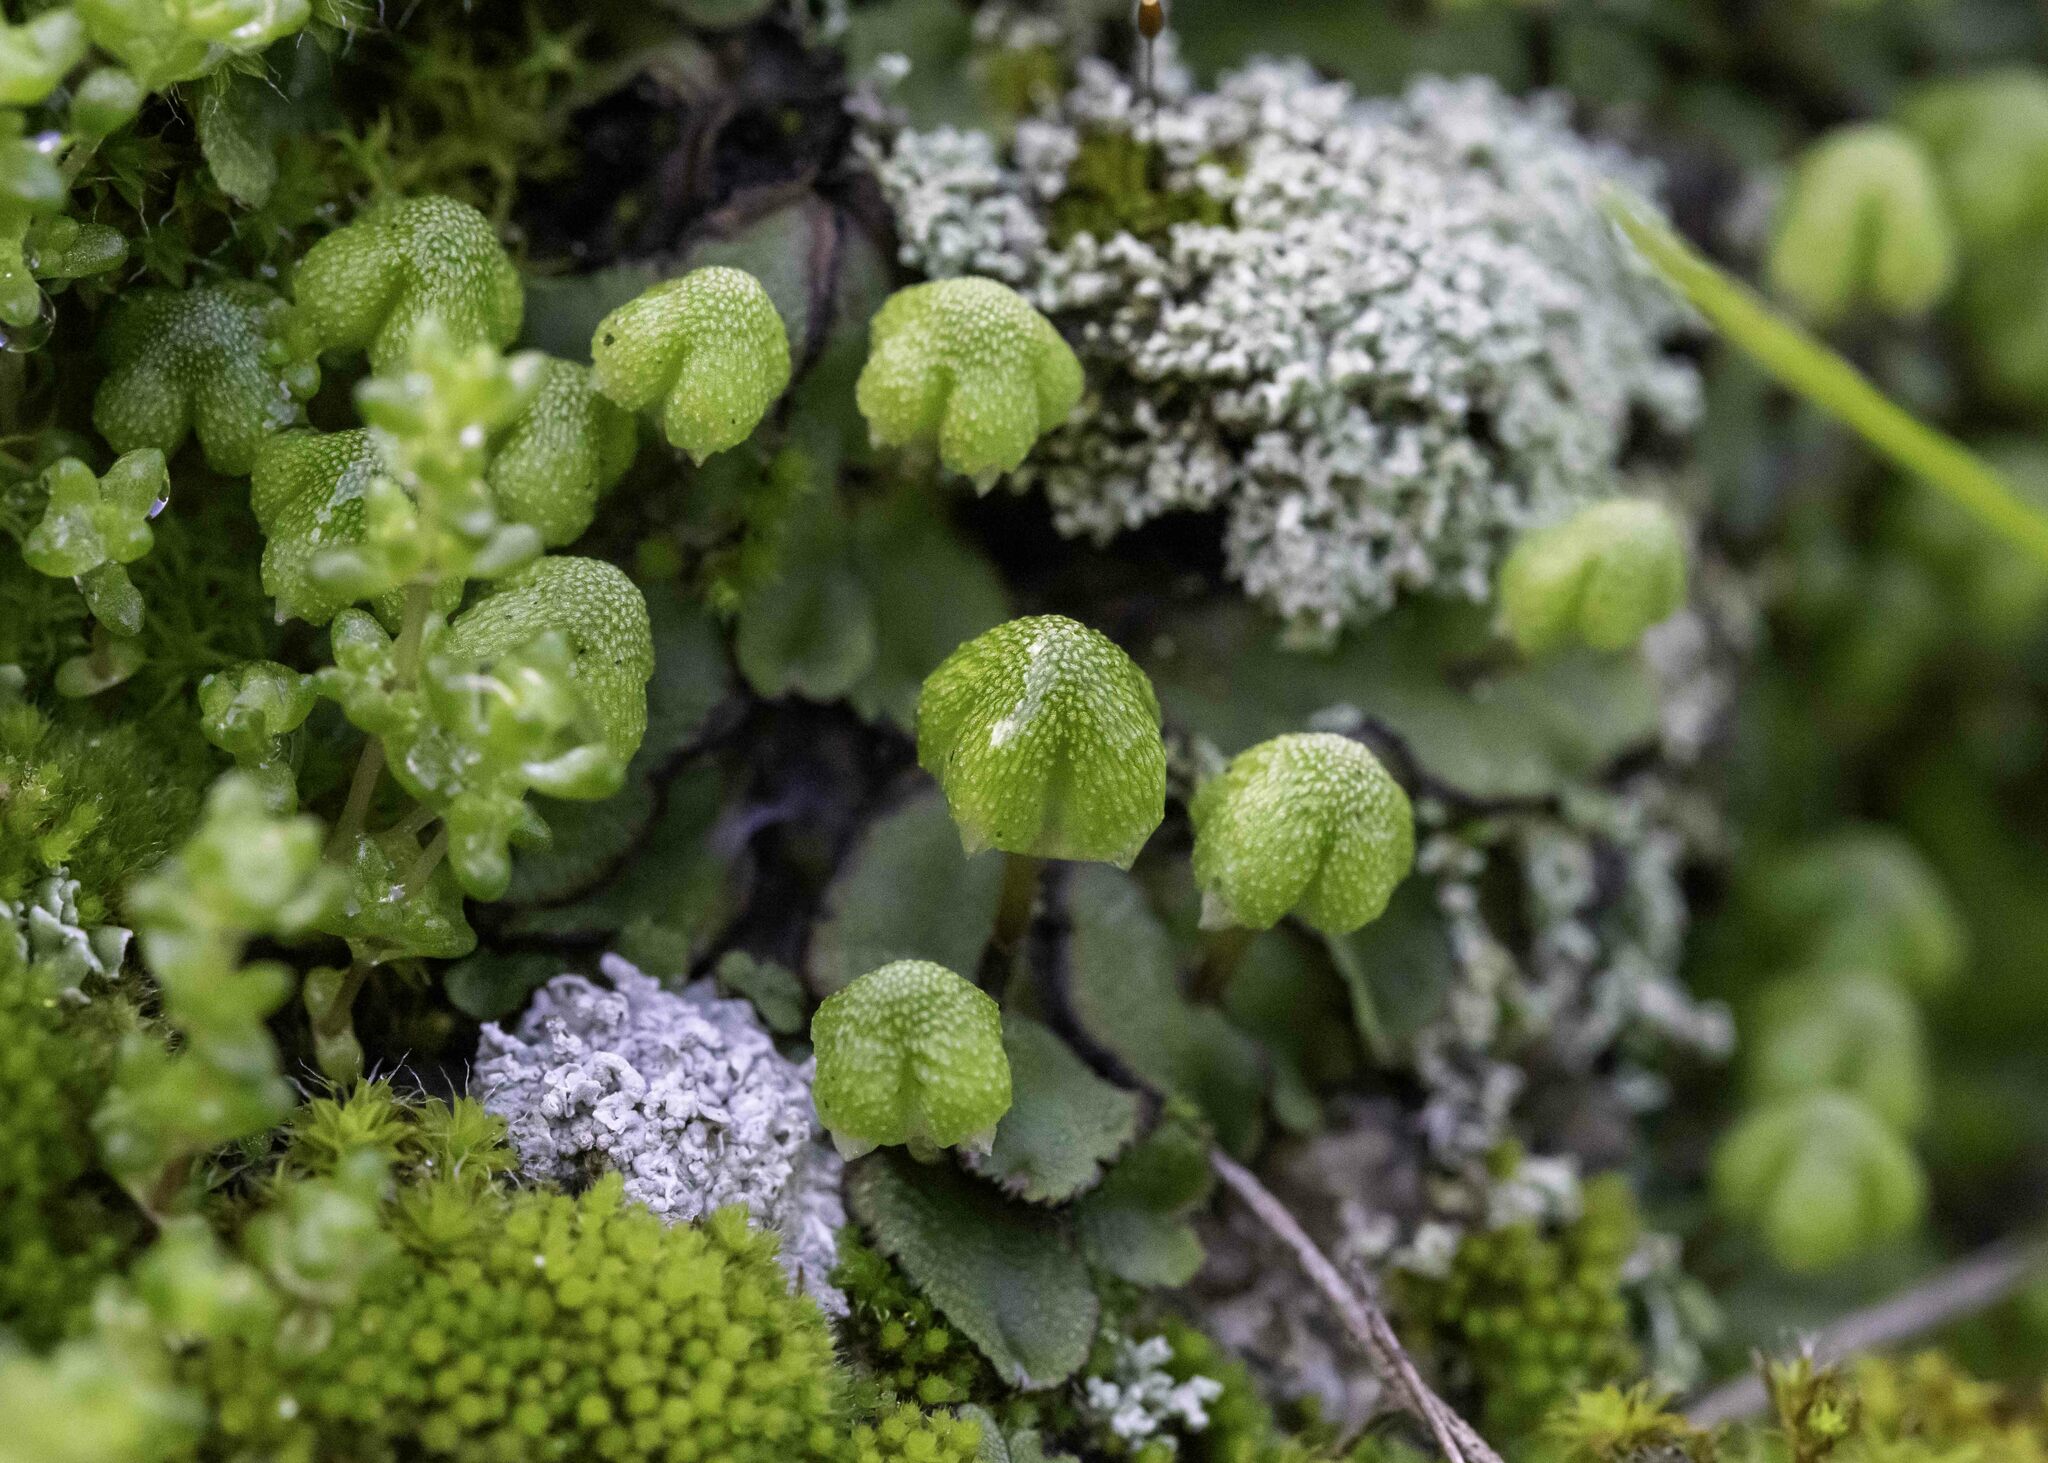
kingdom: Plantae
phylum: Marchantiophyta
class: Marchantiopsida
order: Marchantiales
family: Aytoniaceae
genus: Asterella
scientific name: Asterella californica
